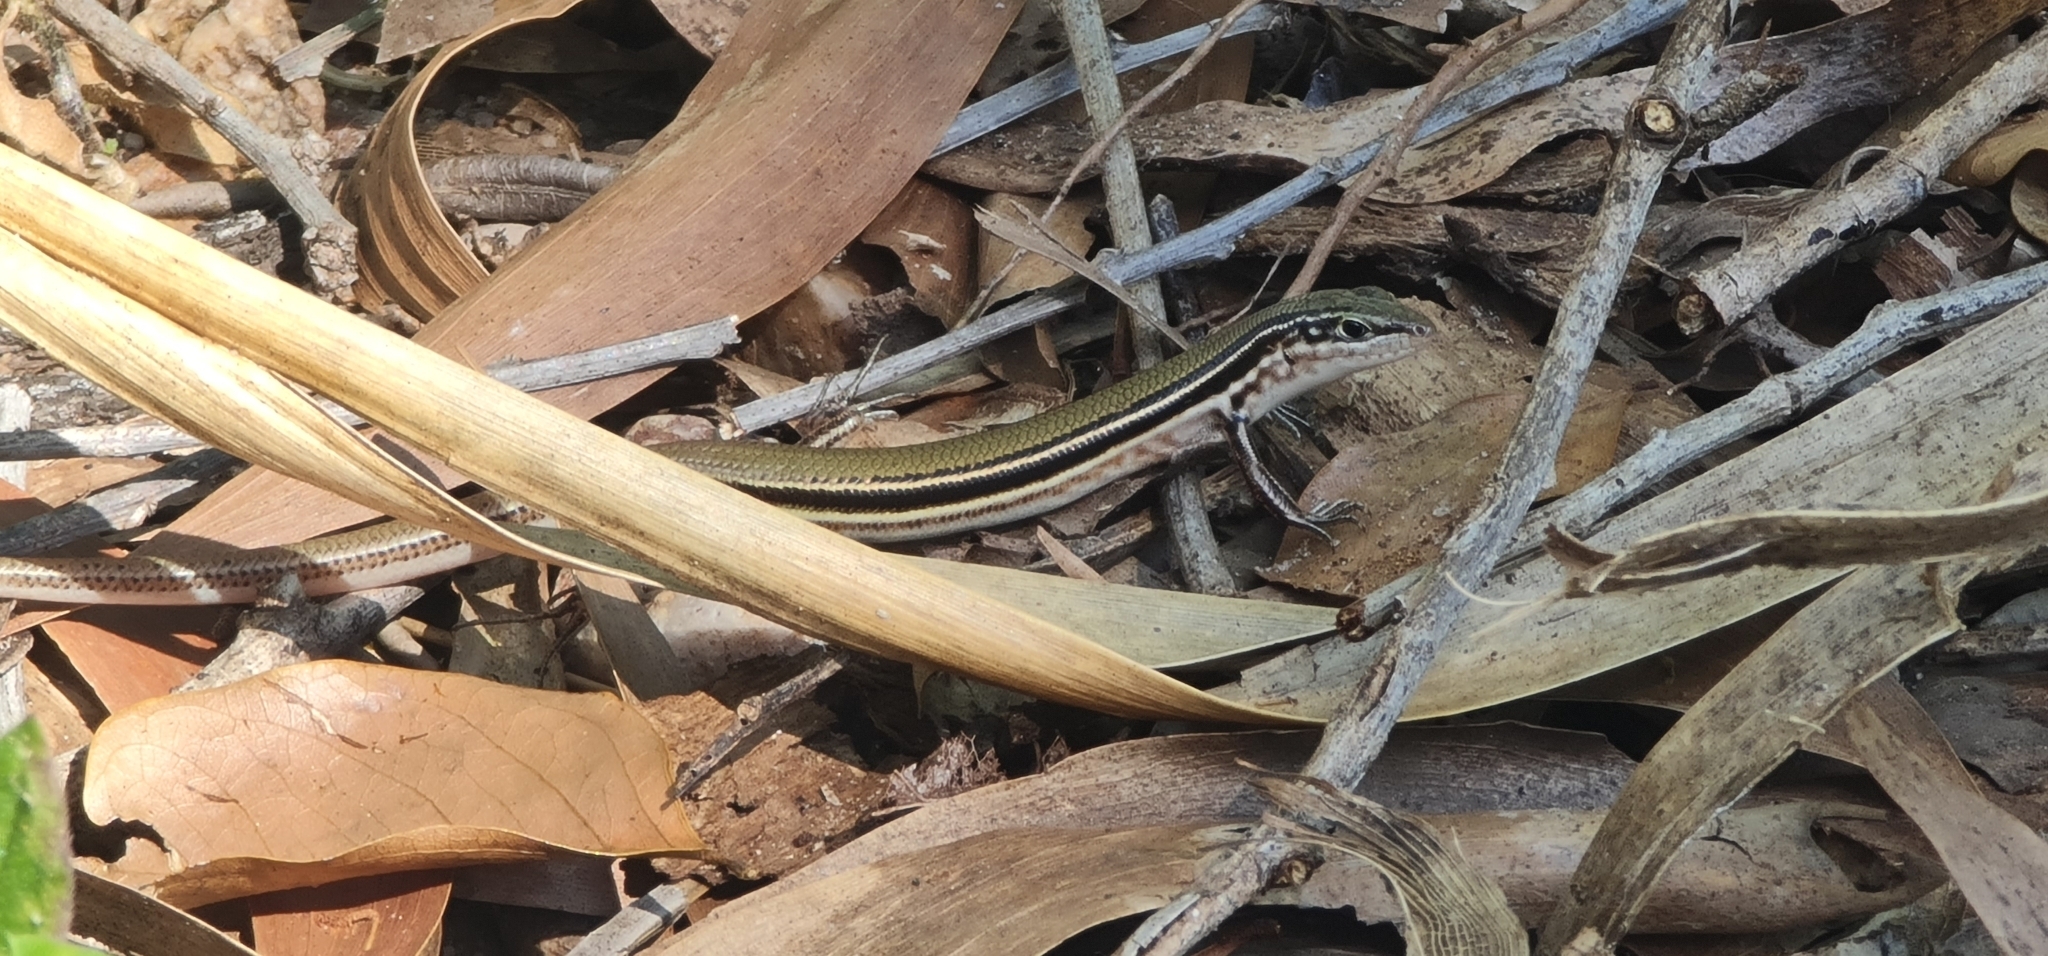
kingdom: Animalia
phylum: Chordata
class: Squamata
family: Scincidae
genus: Ctenotus
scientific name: Ctenotus essingtonii
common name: Lowlands plain-backed ctenotus
